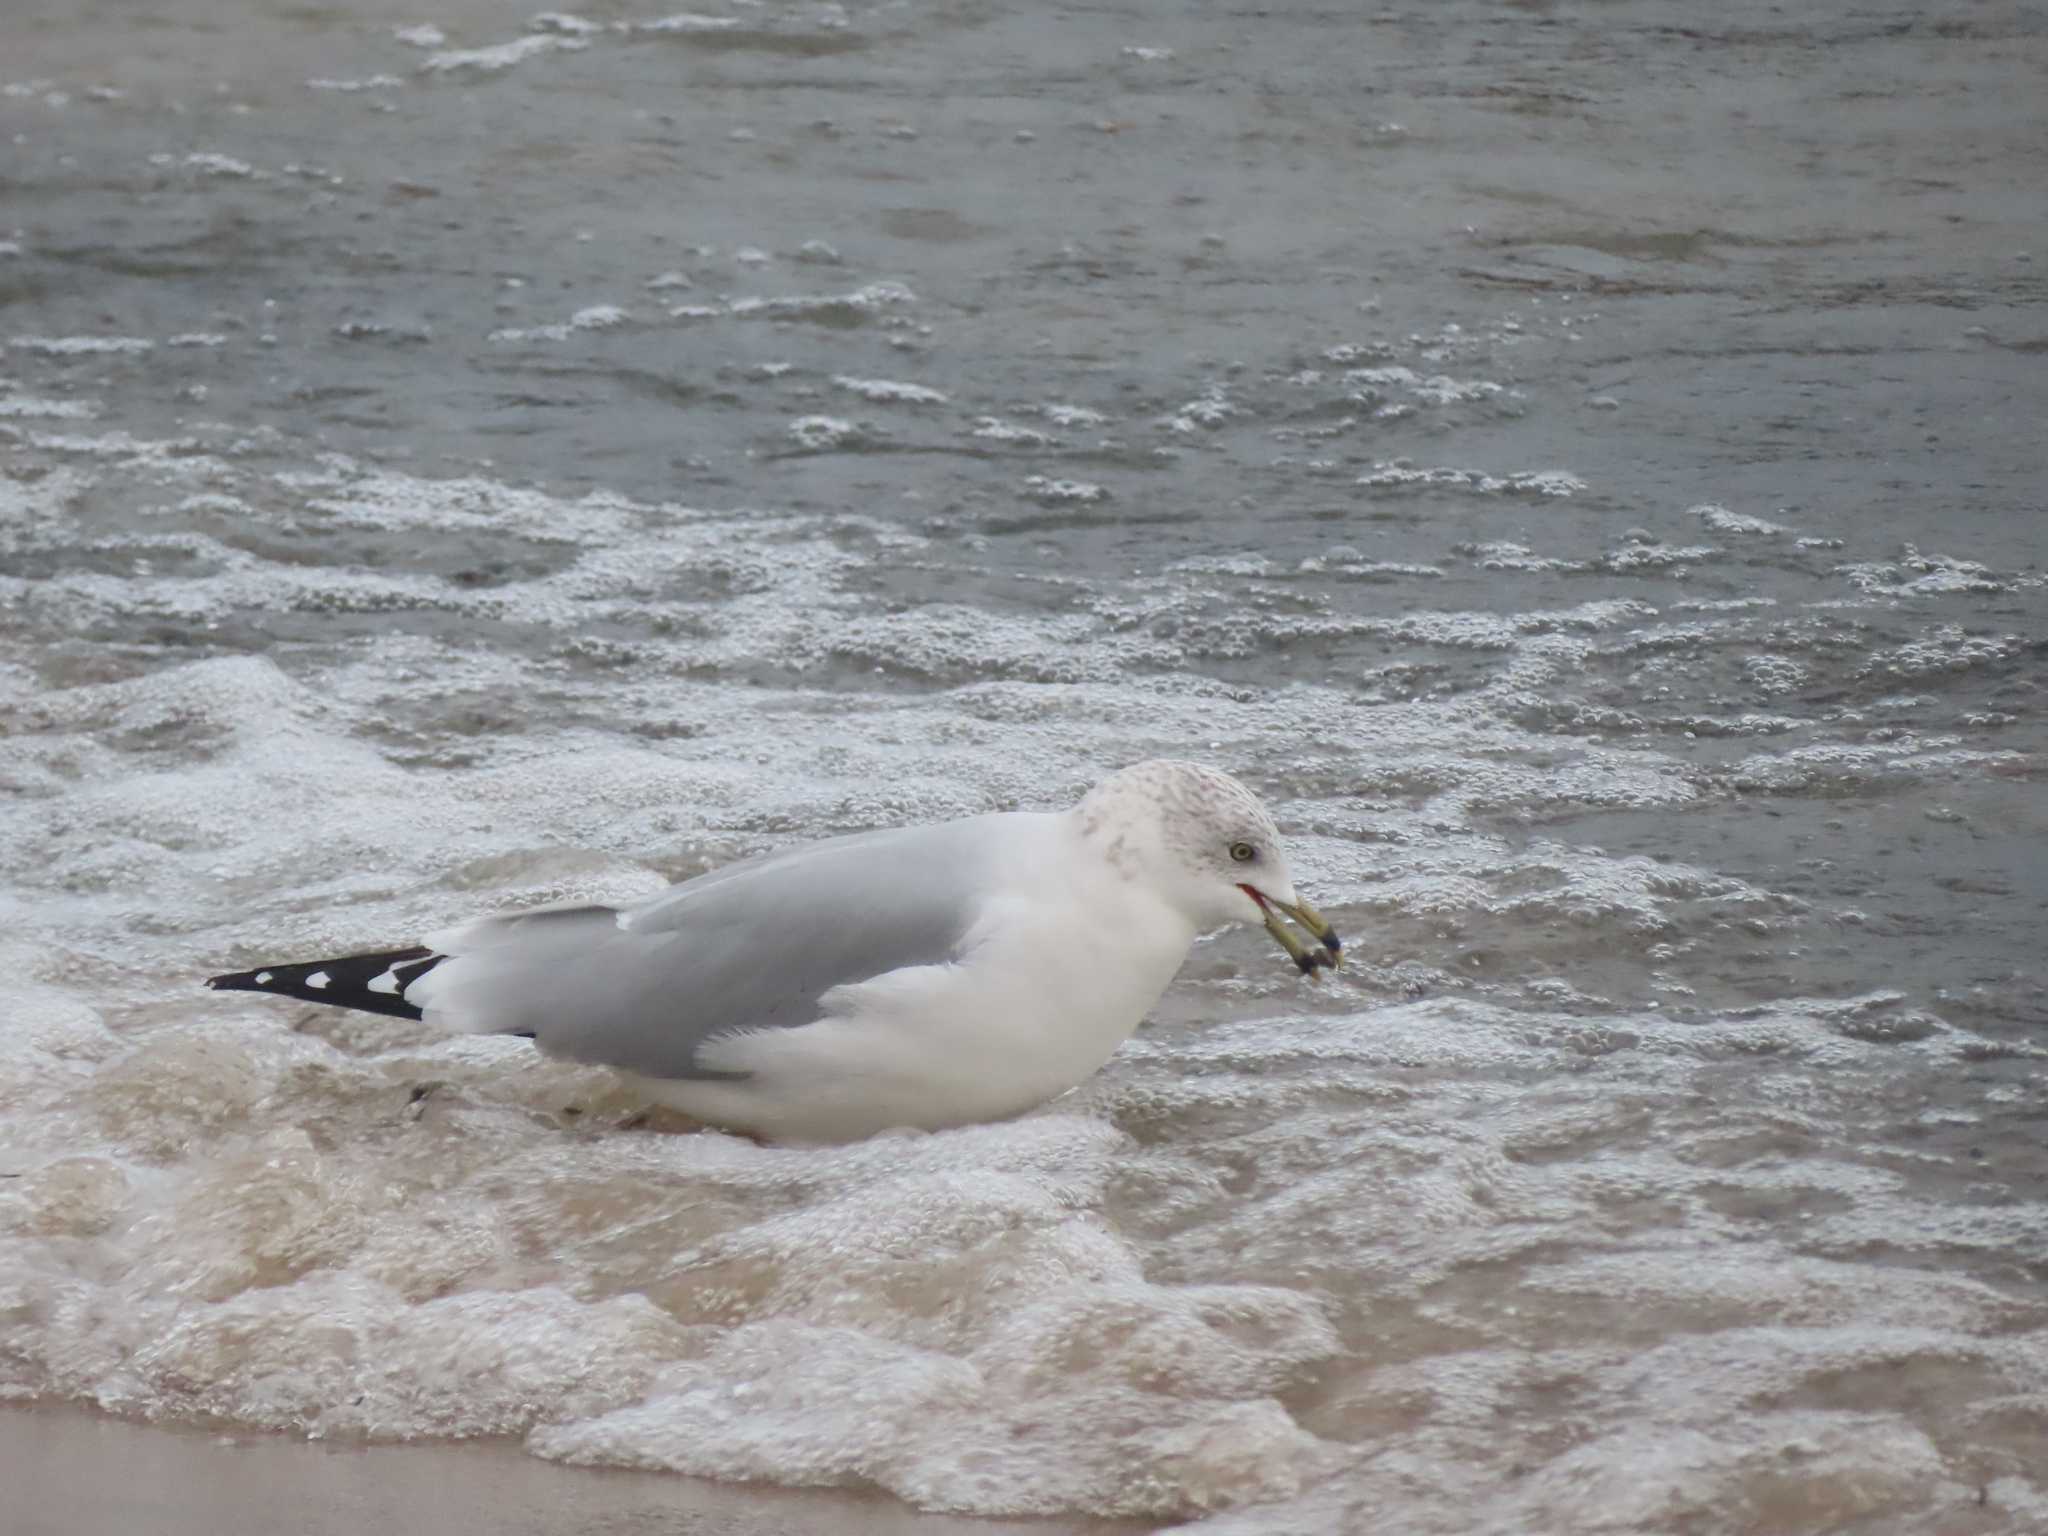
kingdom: Animalia
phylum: Mollusca
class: Bivalvia
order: Myida
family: Dreissenidae
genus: Dreissena
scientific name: Dreissena bugensis
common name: Quagga mussel
